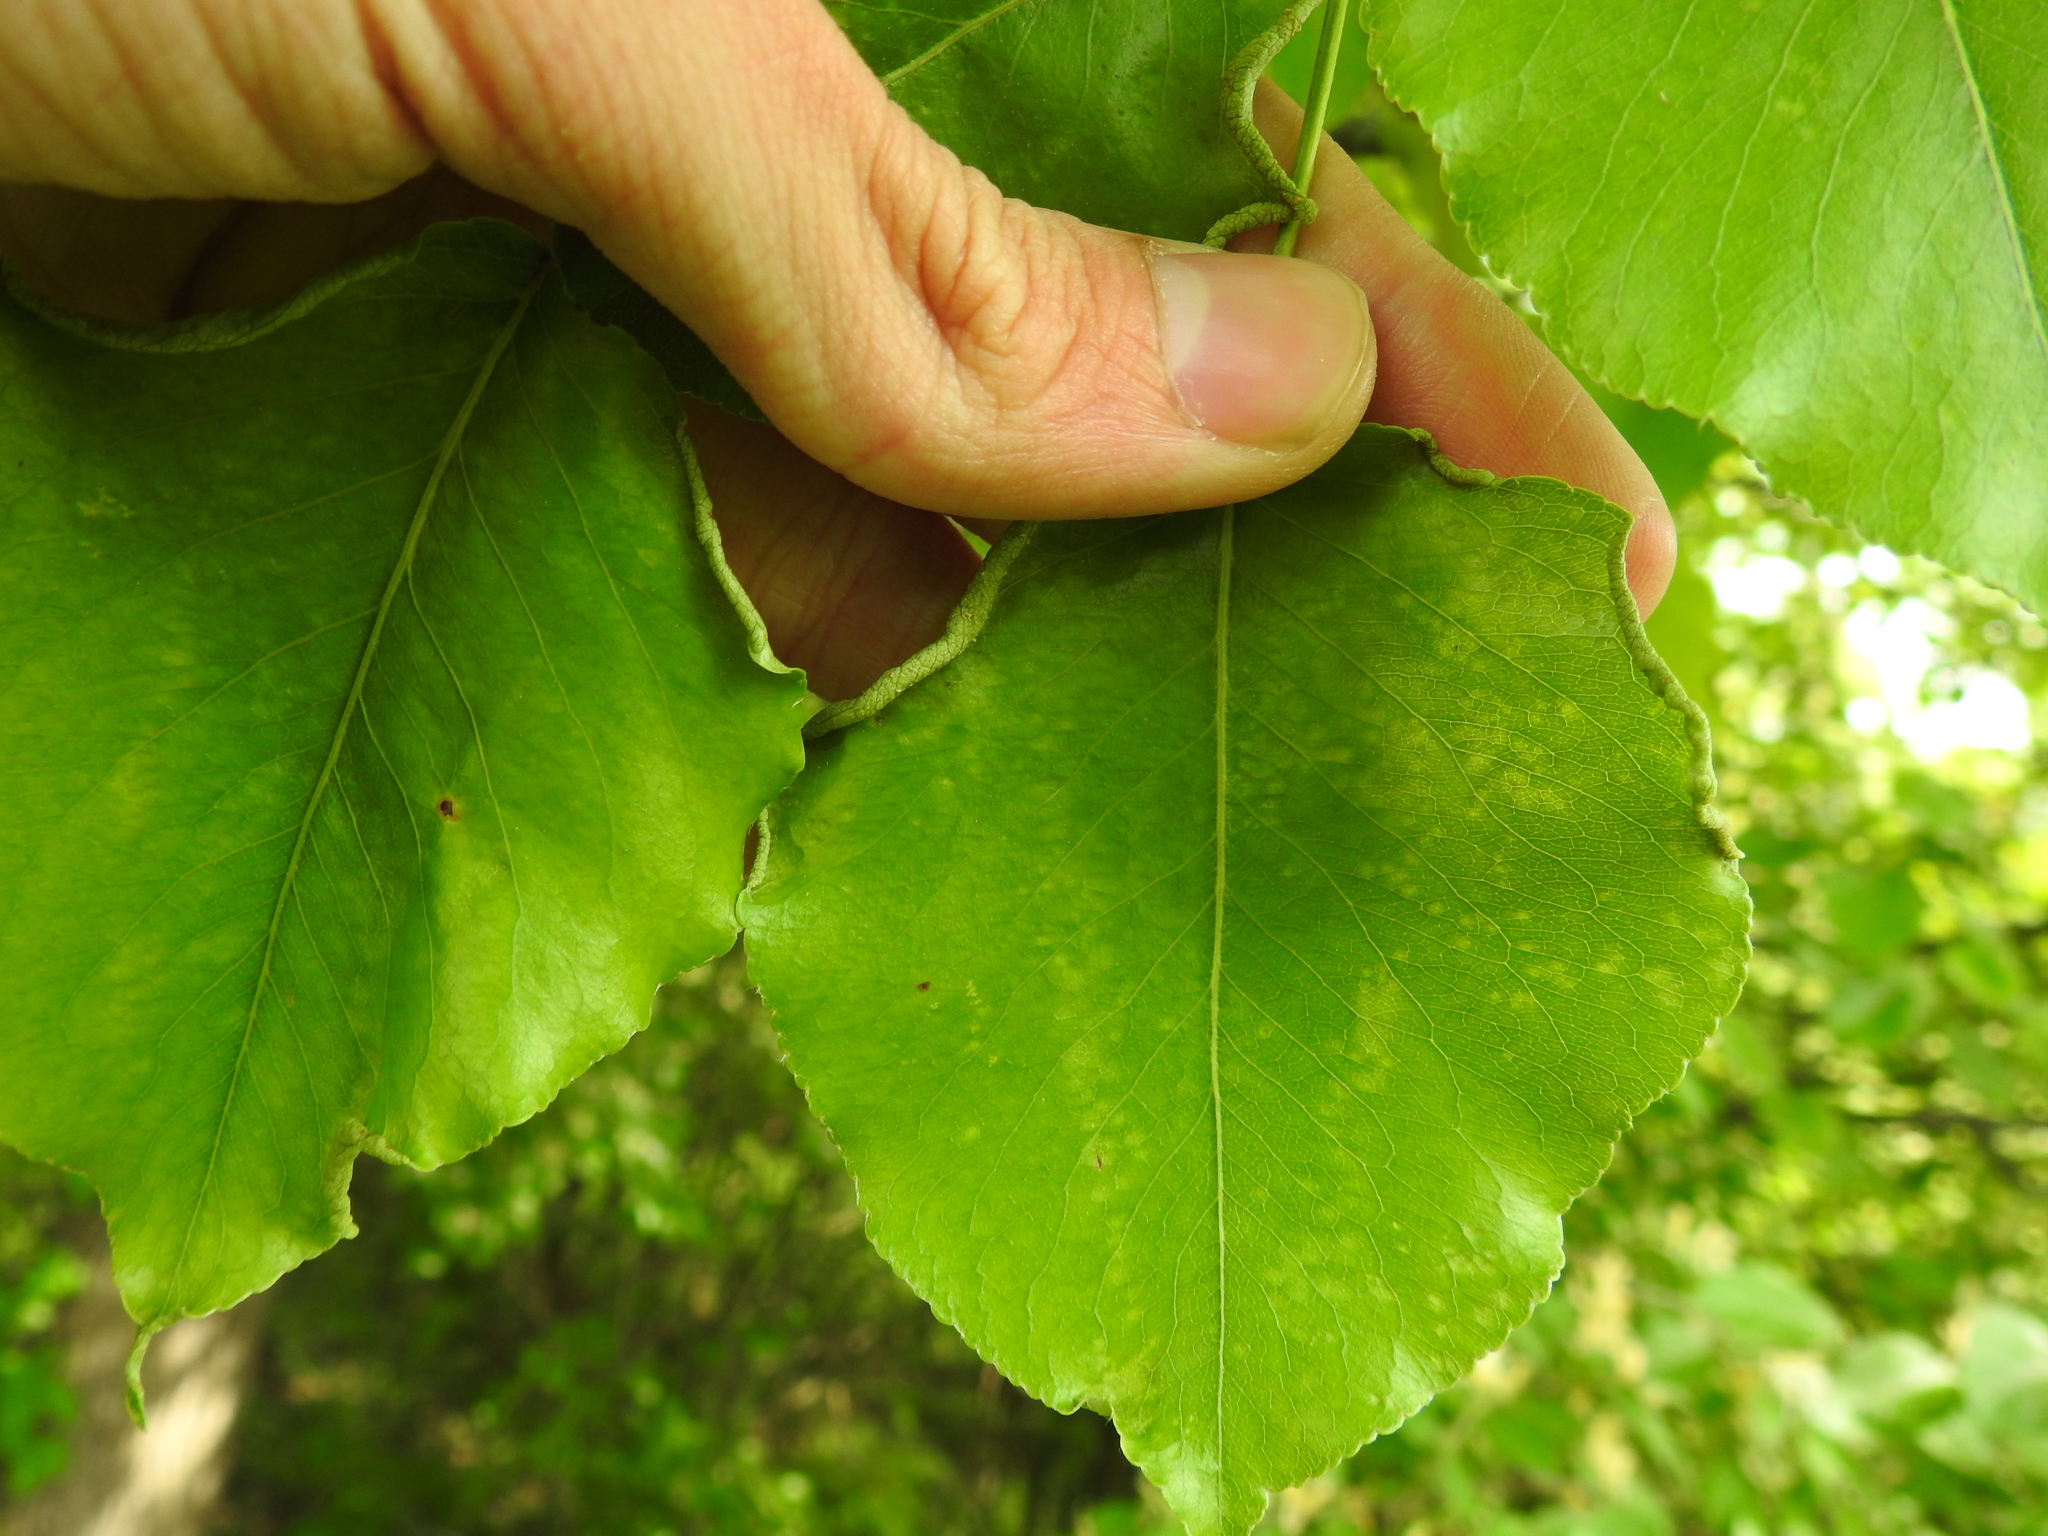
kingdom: Animalia
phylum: Arthropoda
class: Arachnida
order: Trombidiformes
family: Eriophyidae
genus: Eriophyes
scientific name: Eriophyes marginemtorquens
